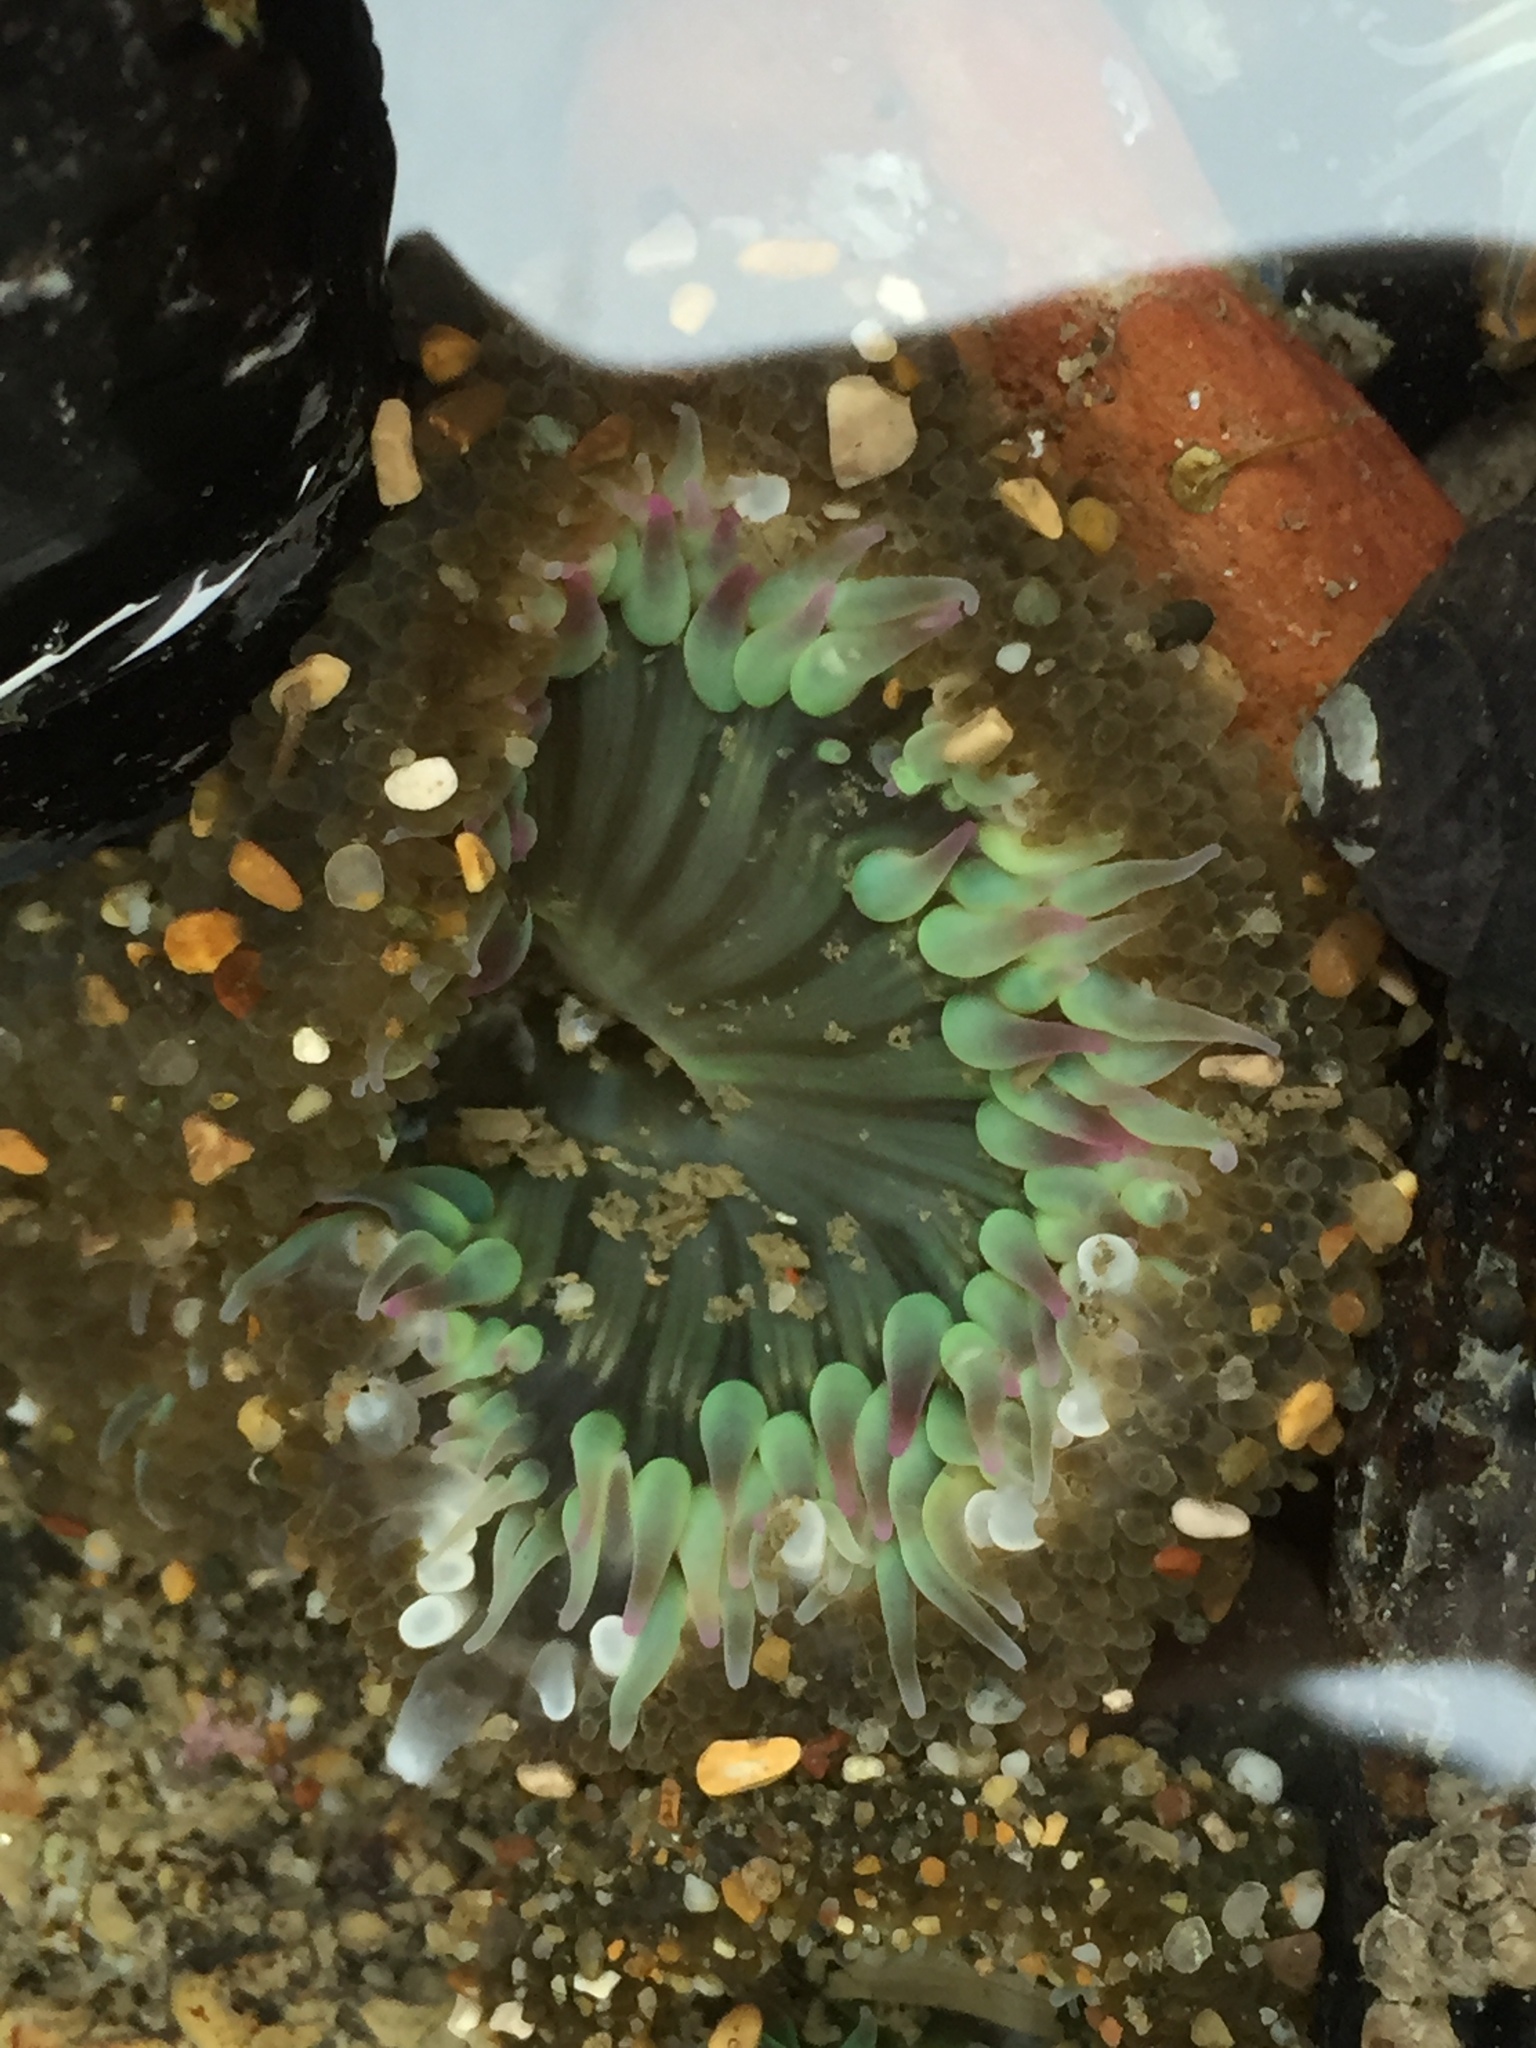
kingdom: Animalia
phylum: Cnidaria
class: Anthozoa
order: Actiniaria
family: Actiniidae
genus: Anthopleura
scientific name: Anthopleura sola
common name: Sun anemone
